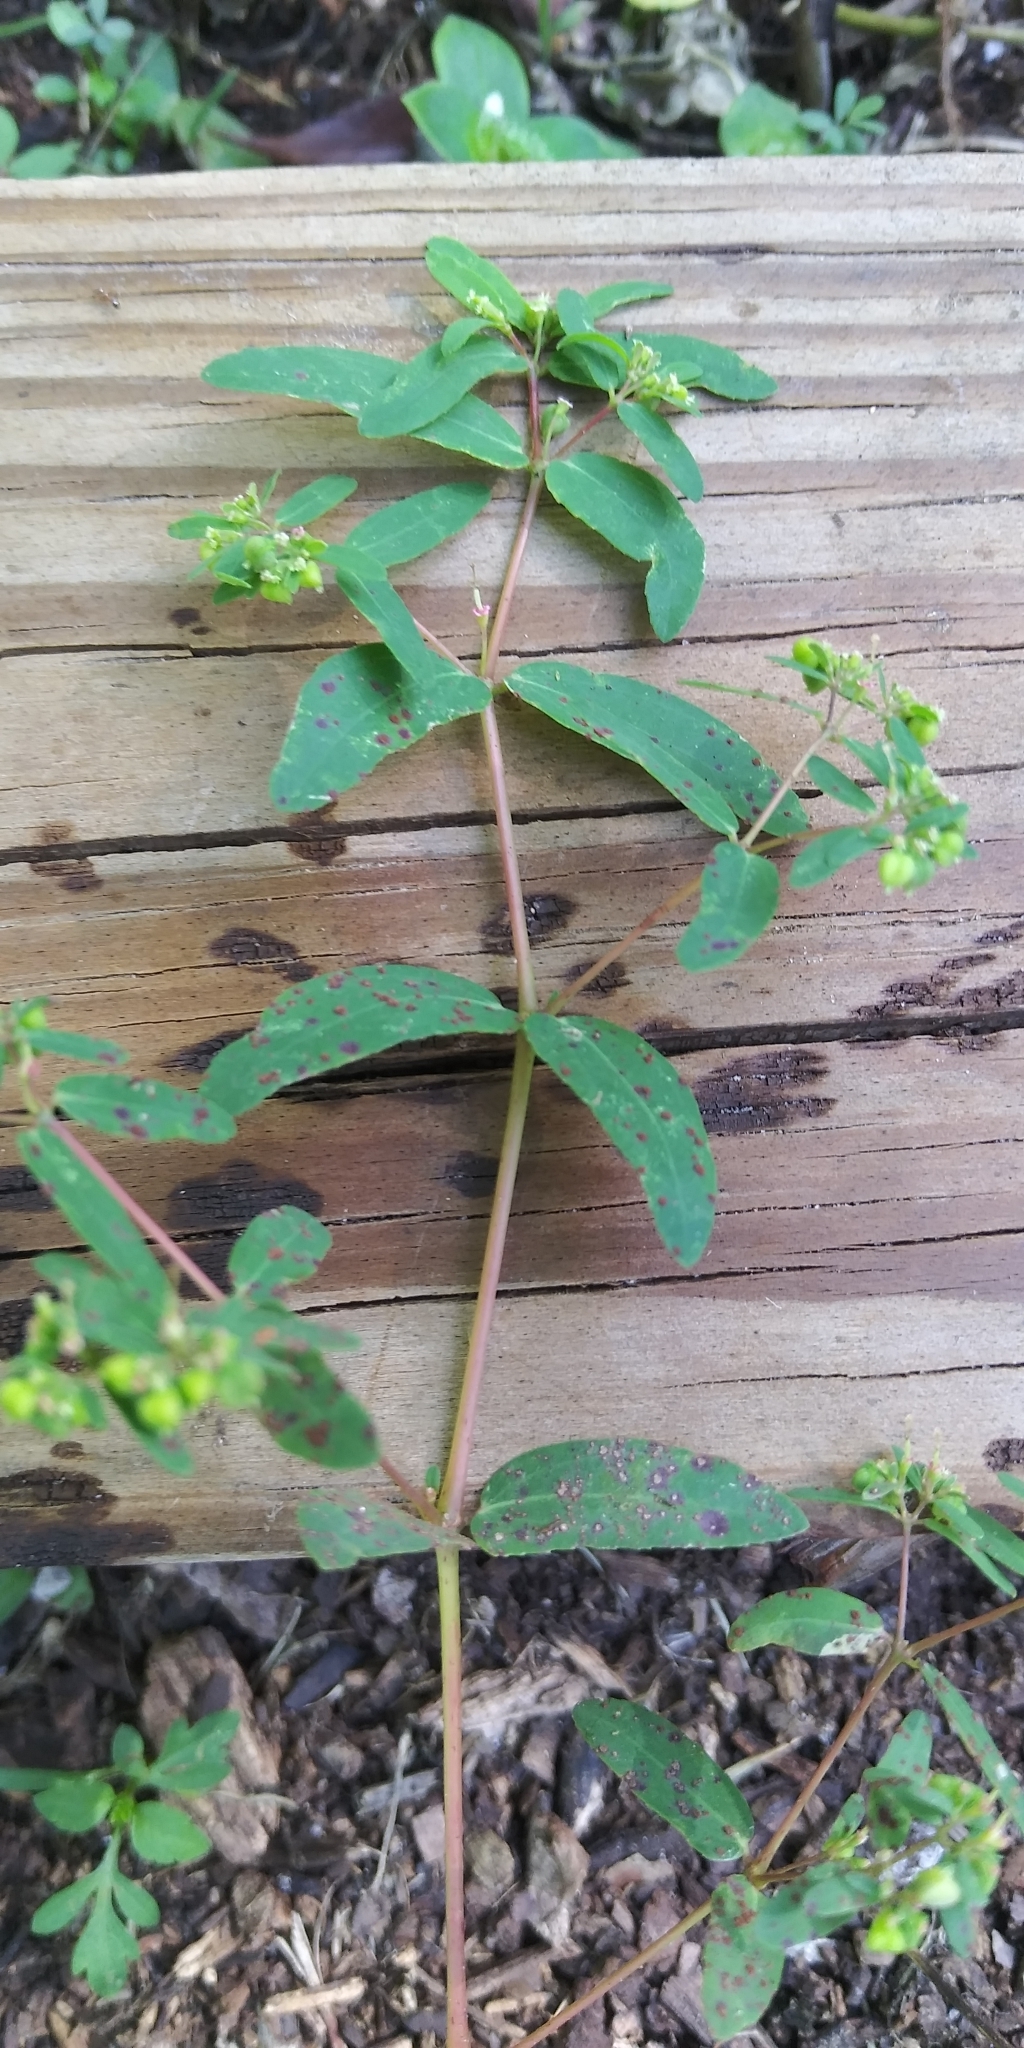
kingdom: Plantae
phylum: Tracheophyta
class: Magnoliopsida
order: Malpighiales
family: Euphorbiaceae
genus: Euphorbia
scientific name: Euphorbia hyssopifolia
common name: Hyssopleaf sandmat
